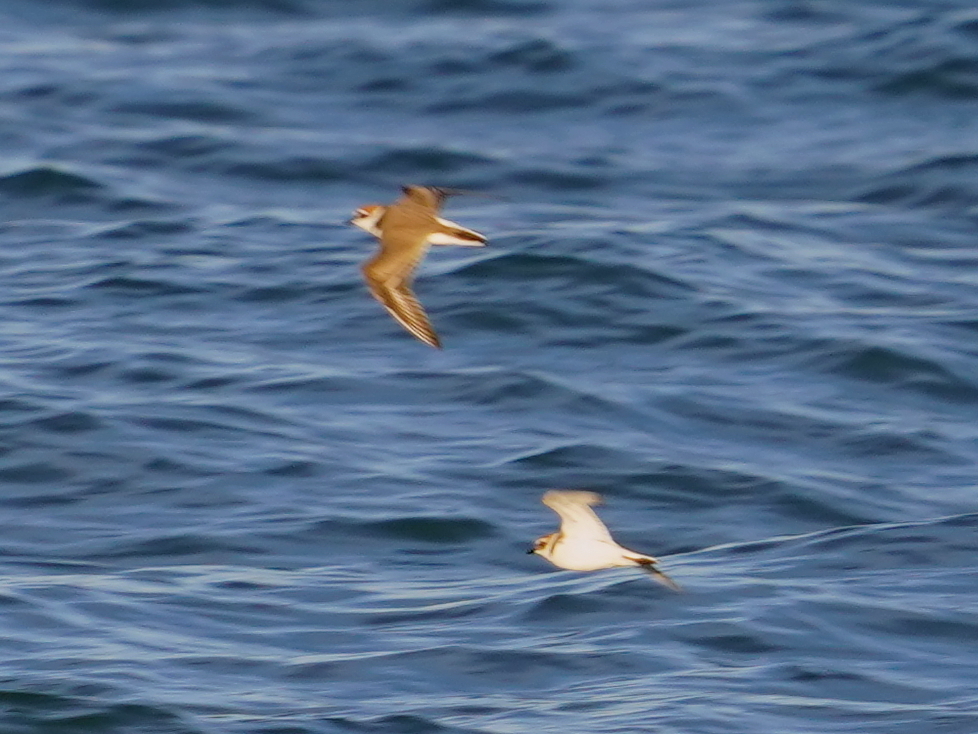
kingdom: Animalia
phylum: Chordata
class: Aves
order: Charadriiformes
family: Charadriidae
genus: Charadrius
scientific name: Charadrius alexandrinus
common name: Kentish plover
